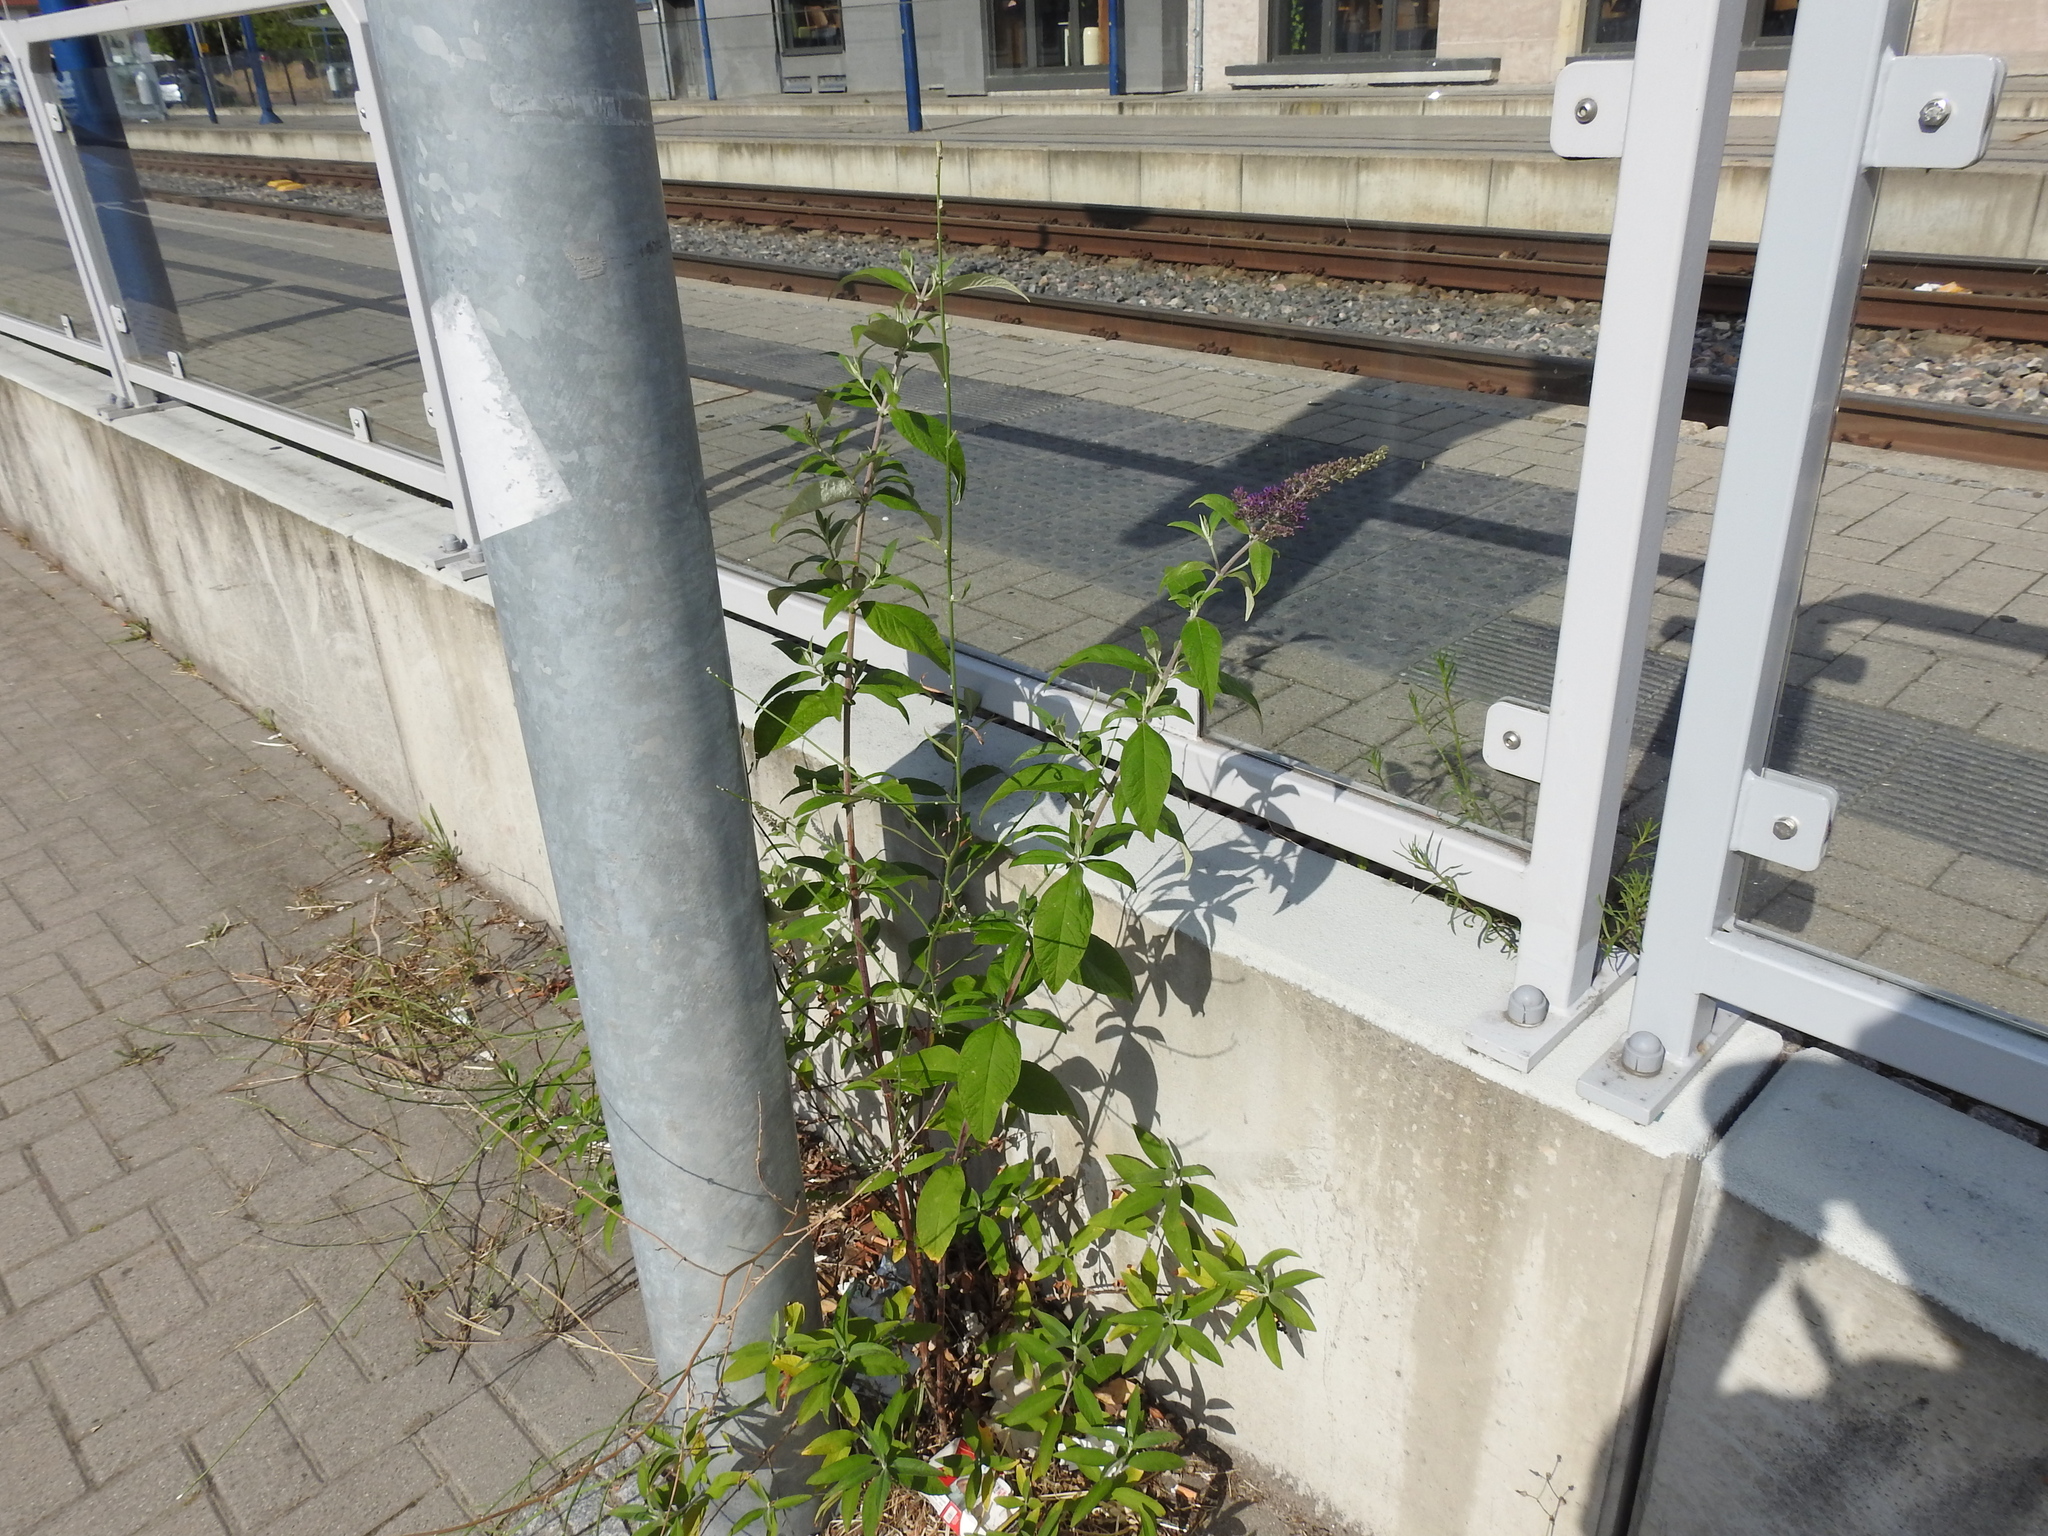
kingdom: Plantae
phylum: Tracheophyta
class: Magnoliopsida
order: Lamiales
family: Scrophulariaceae
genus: Buddleja
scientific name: Buddleja davidii
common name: Butterfly-bush
